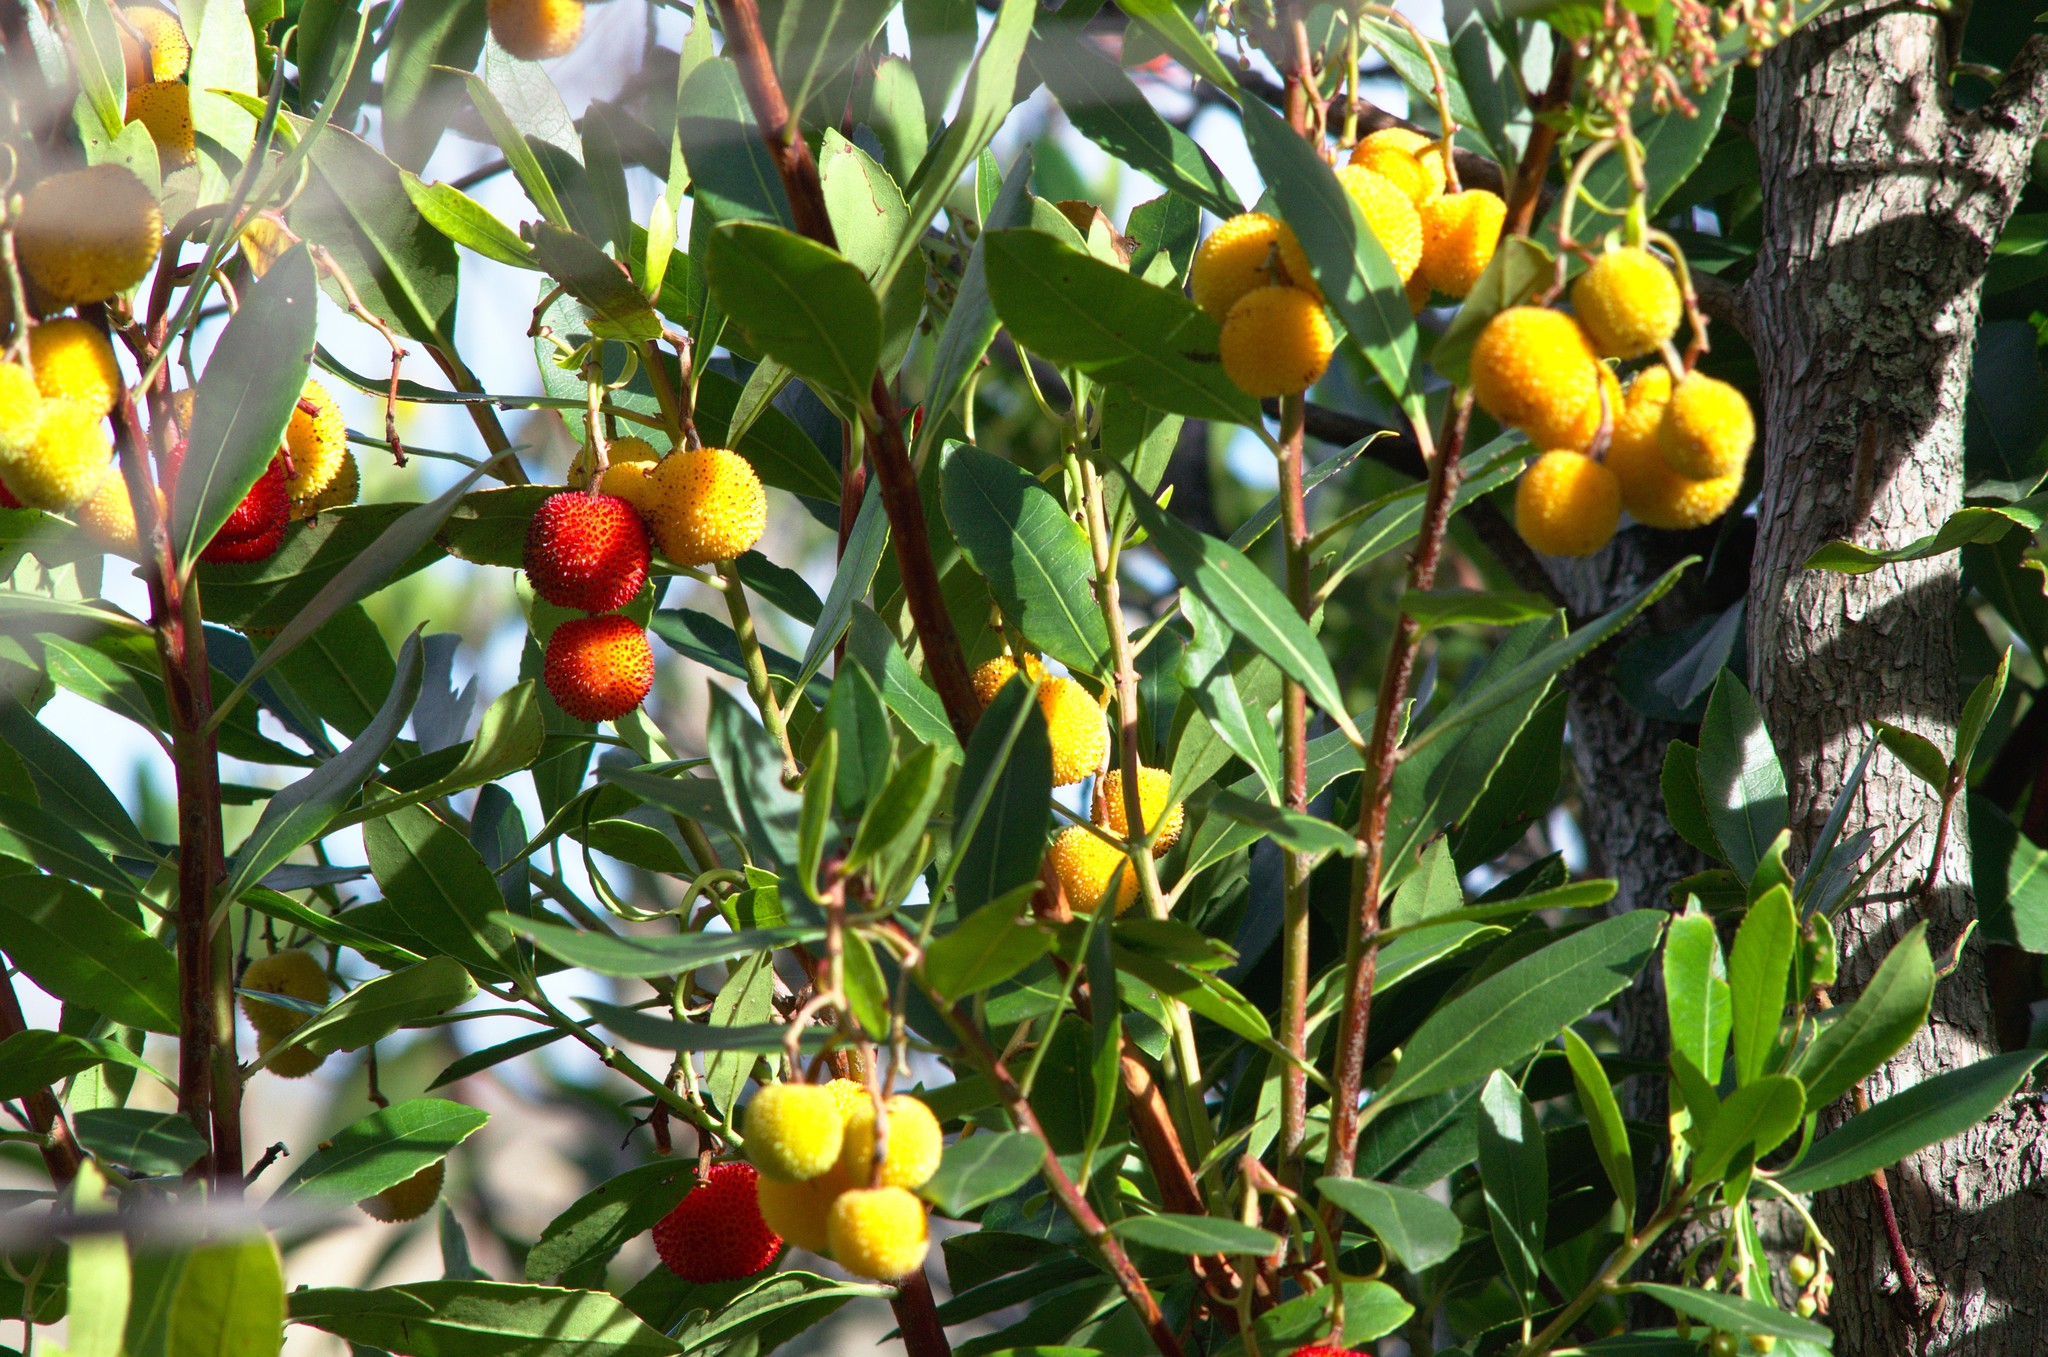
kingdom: Plantae
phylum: Tracheophyta
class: Magnoliopsida
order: Ericales
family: Ericaceae
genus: Arbutus
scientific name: Arbutus unedo
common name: Strawberry-tree
